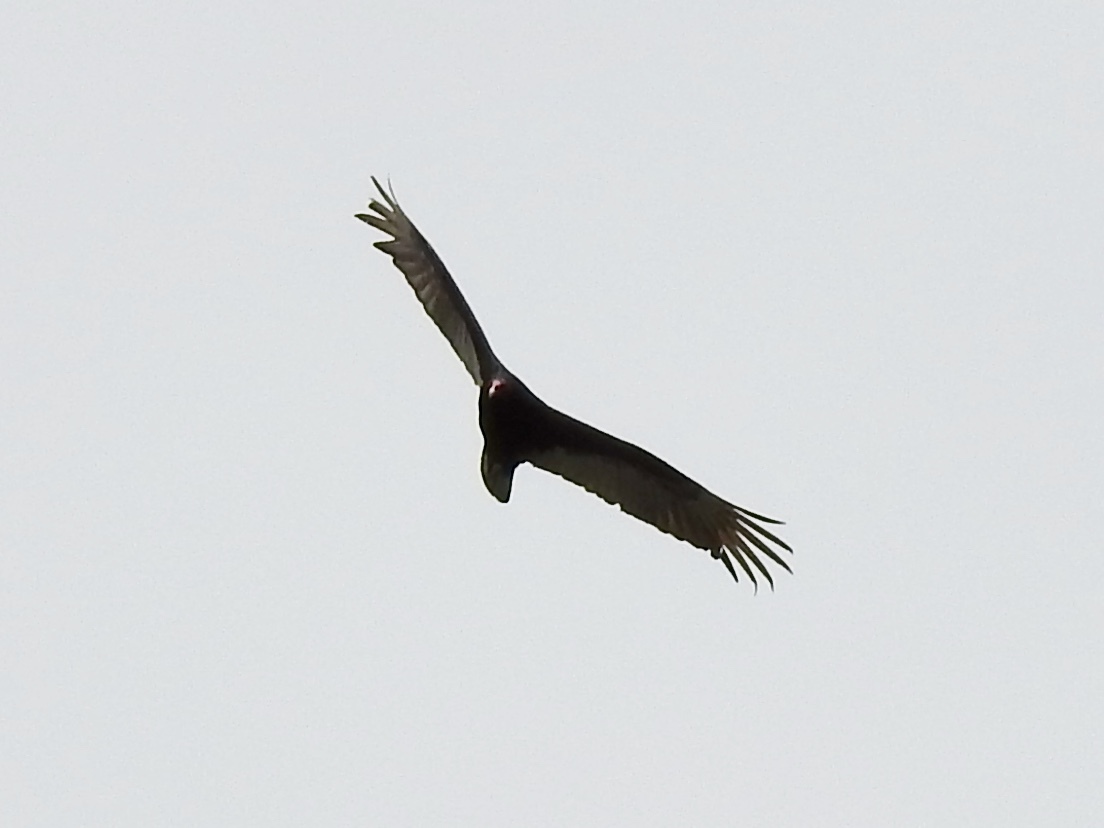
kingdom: Animalia
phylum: Chordata
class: Aves
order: Accipitriformes
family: Cathartidae
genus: Cathartes
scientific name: Cathartes aura
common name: Turkey vulture
